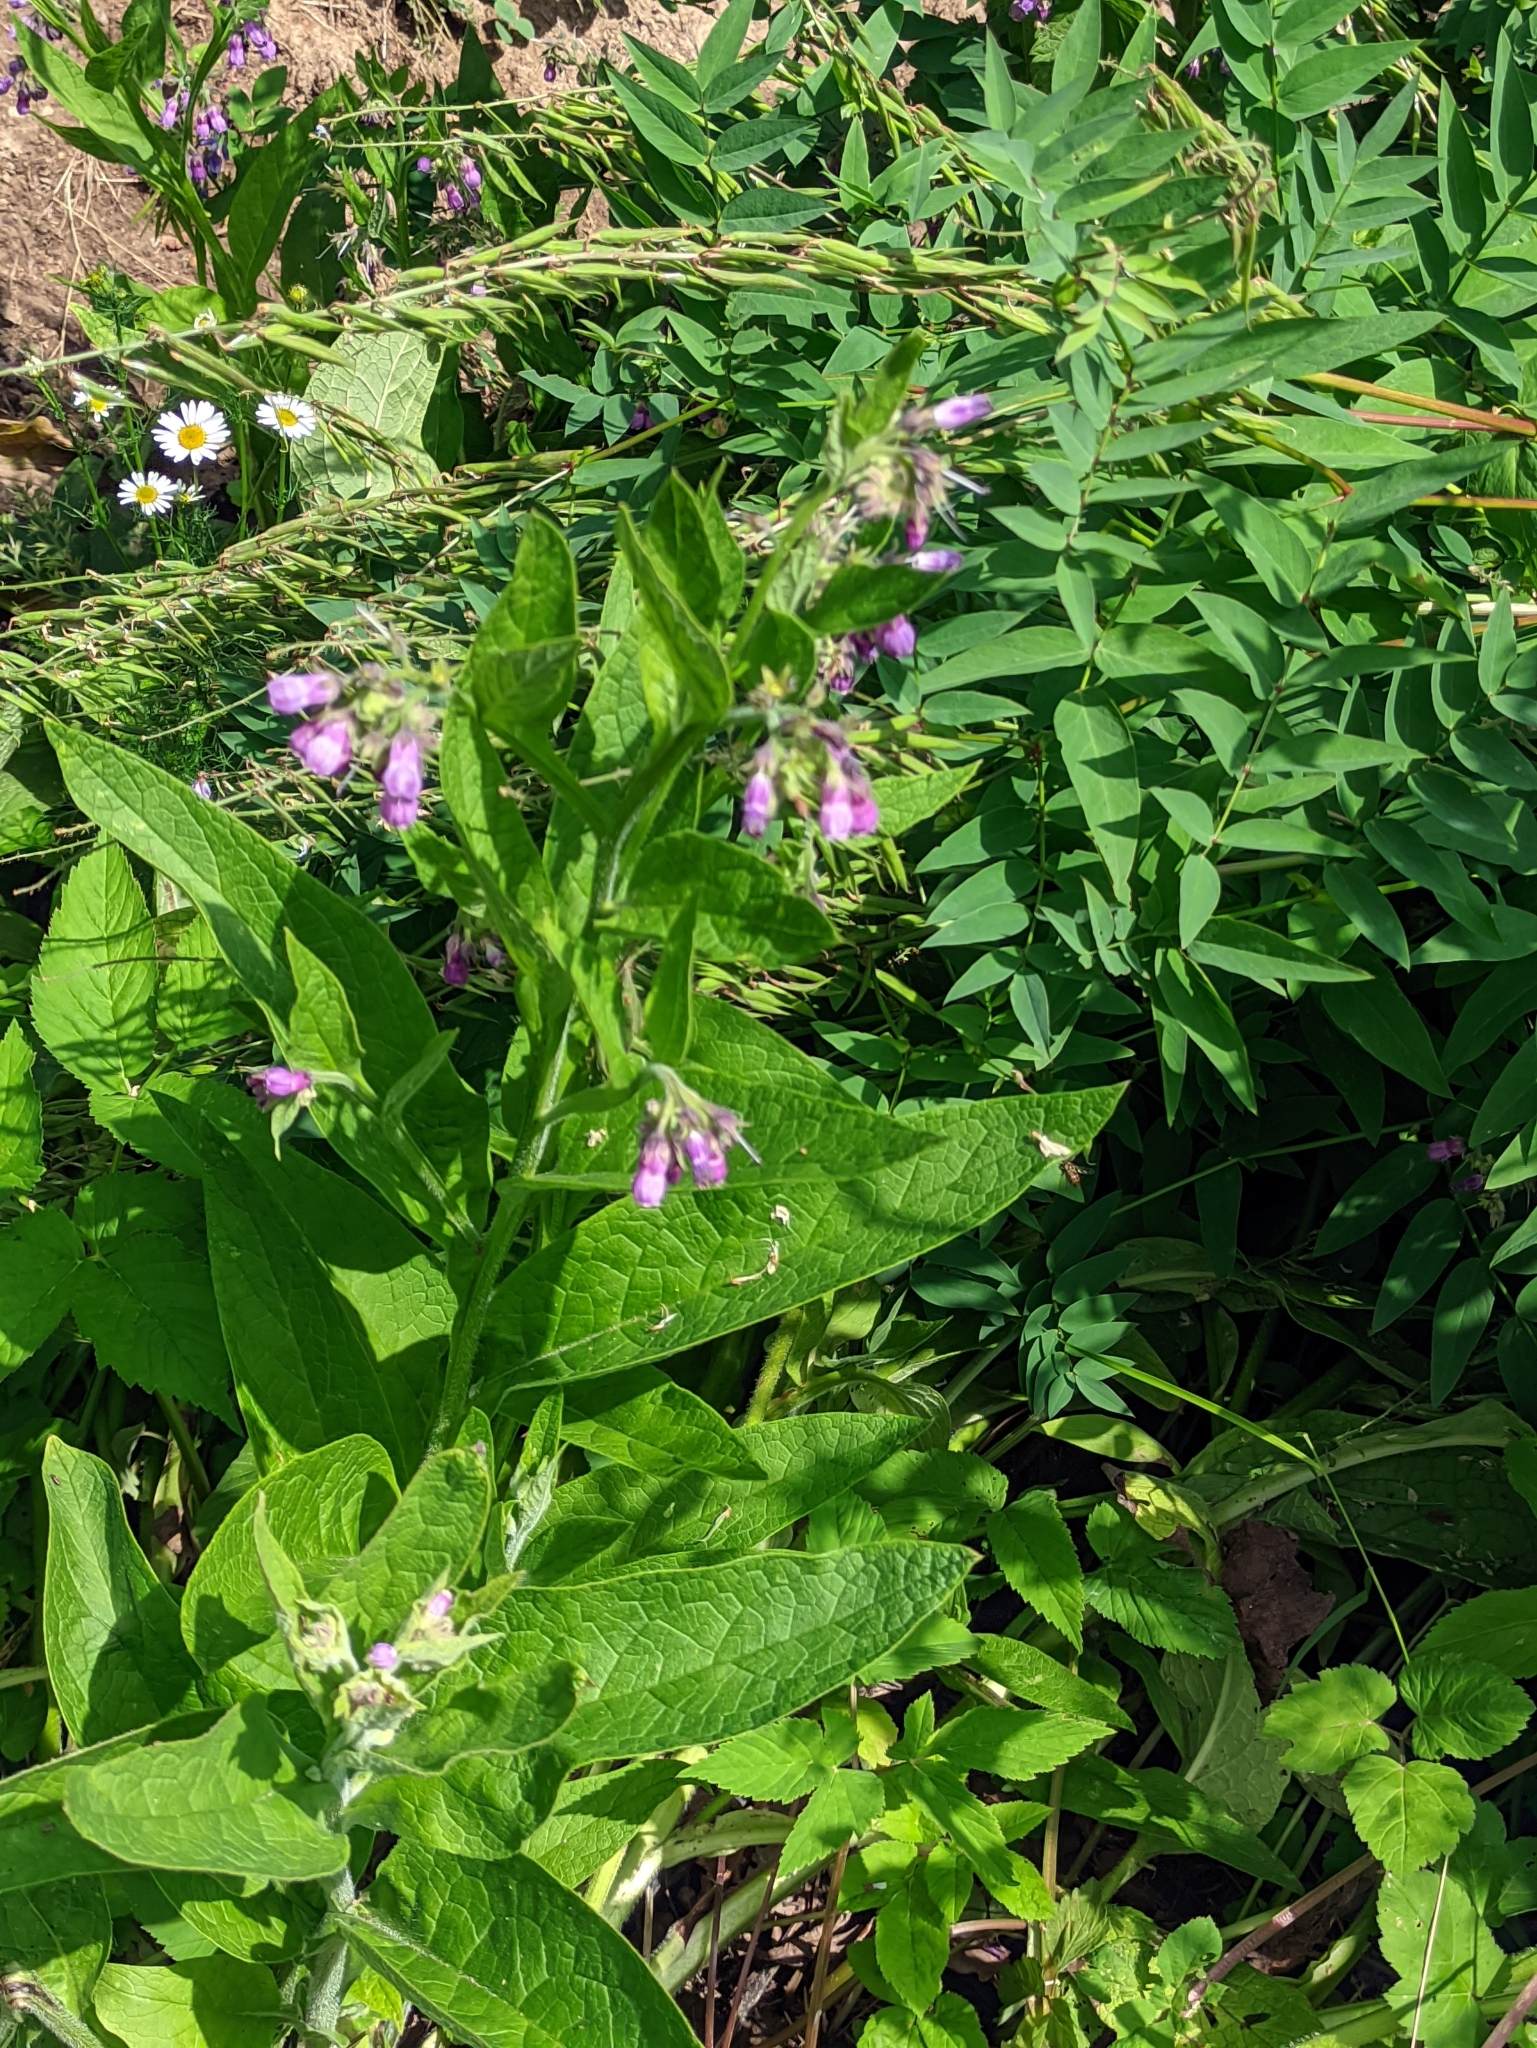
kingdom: Plantae
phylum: Tracheophyta
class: Magnoliopsida
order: Boraginales
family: Boraginaceae
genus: Symphytum
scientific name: Symphytum officinale
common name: Common comfrey
